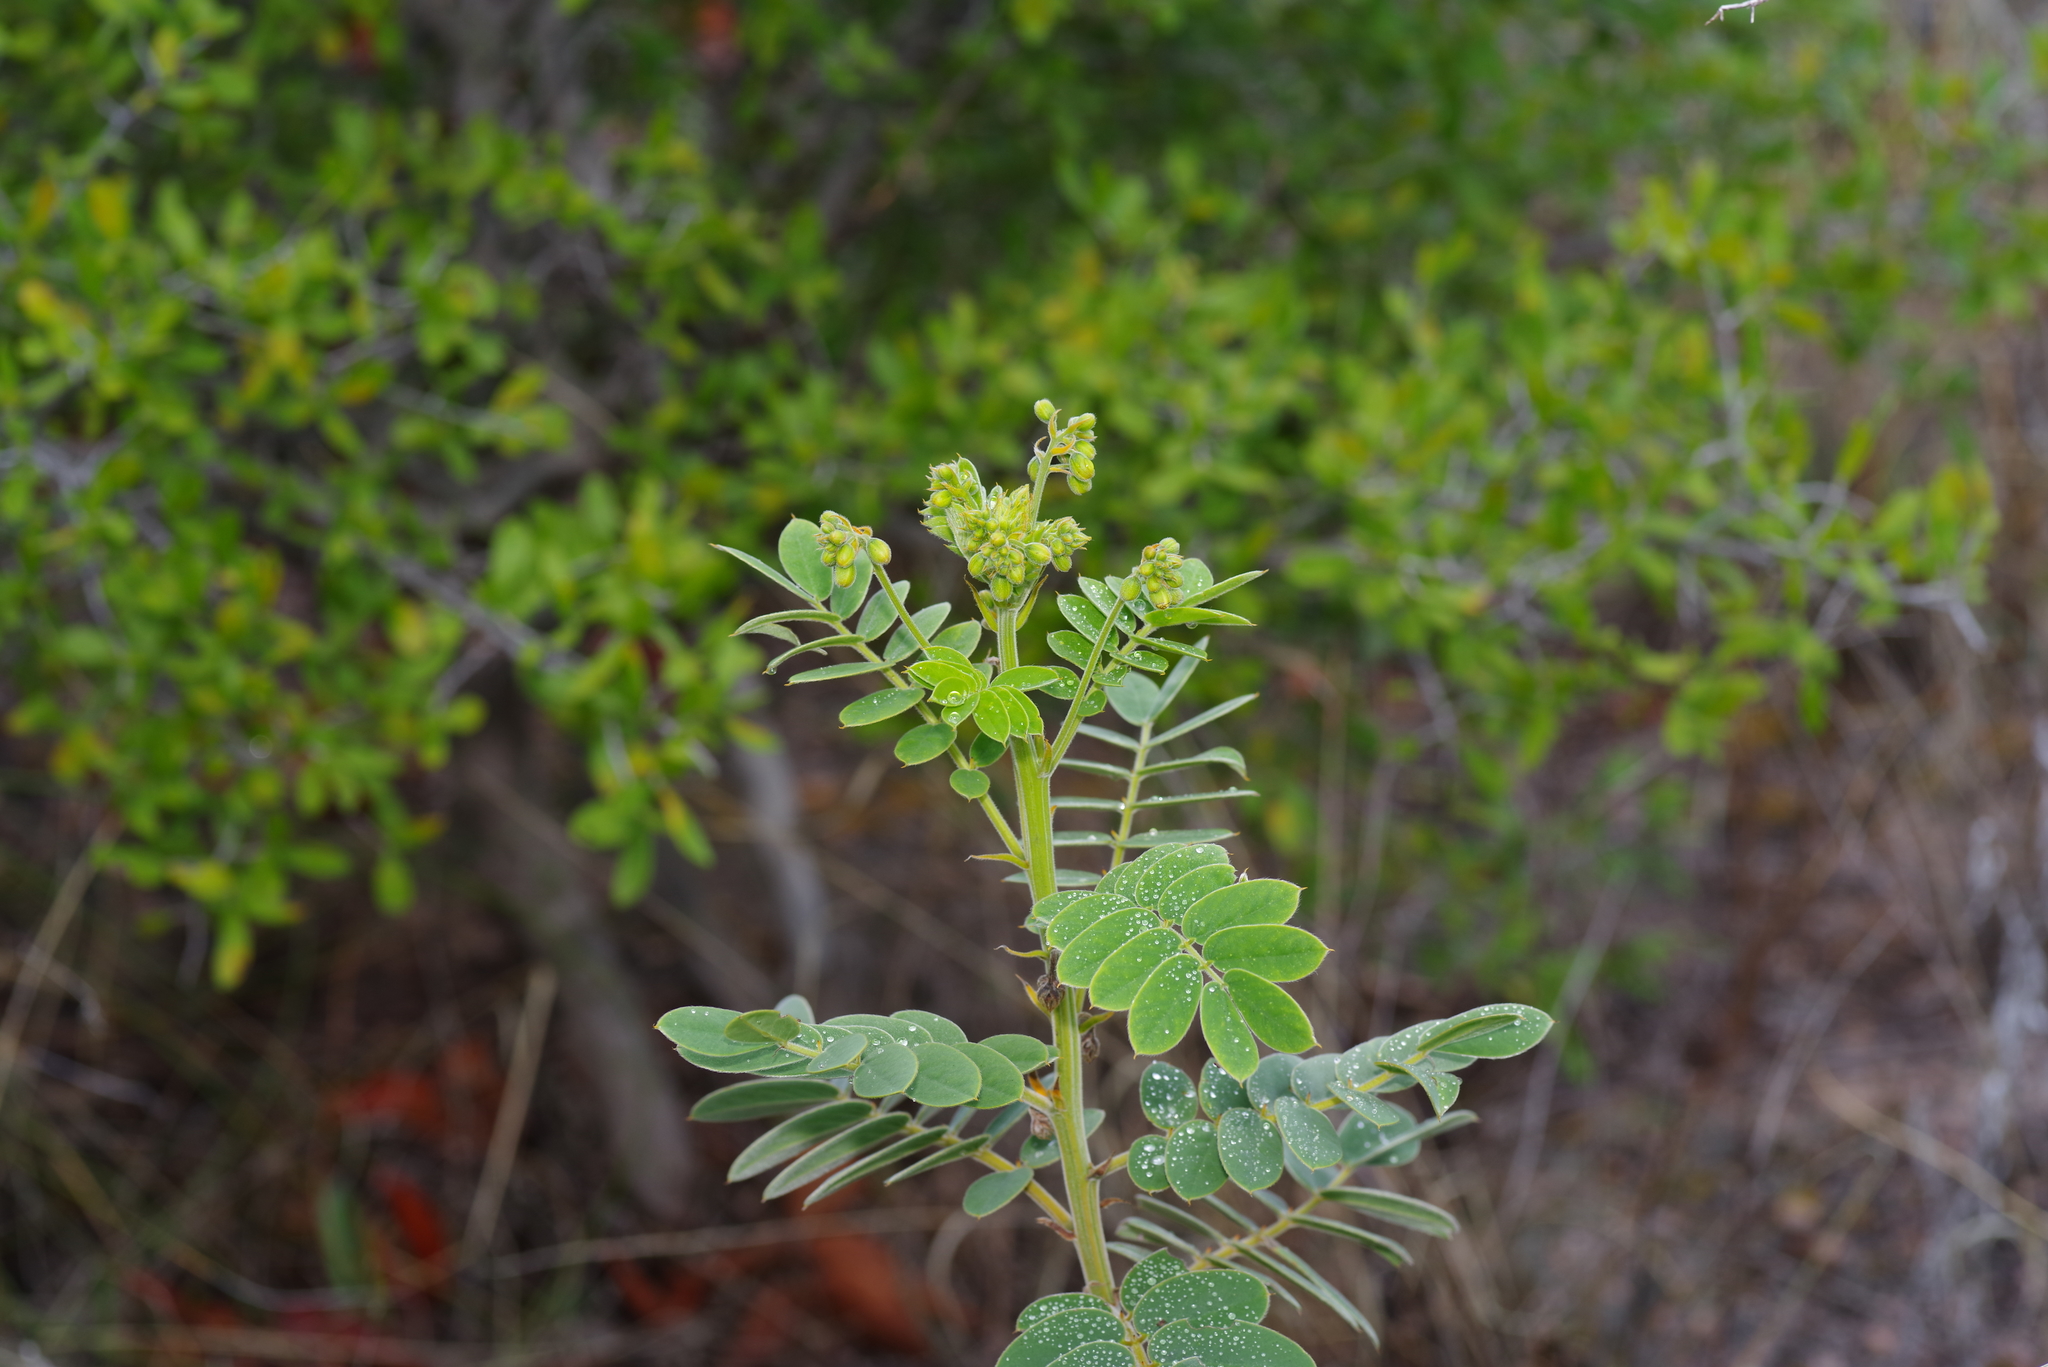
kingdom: Plantae
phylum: Tracheophyta
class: Magnoliopsida
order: Fabales
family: Fabaceae
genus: Senna
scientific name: Senna lindheimeriana
